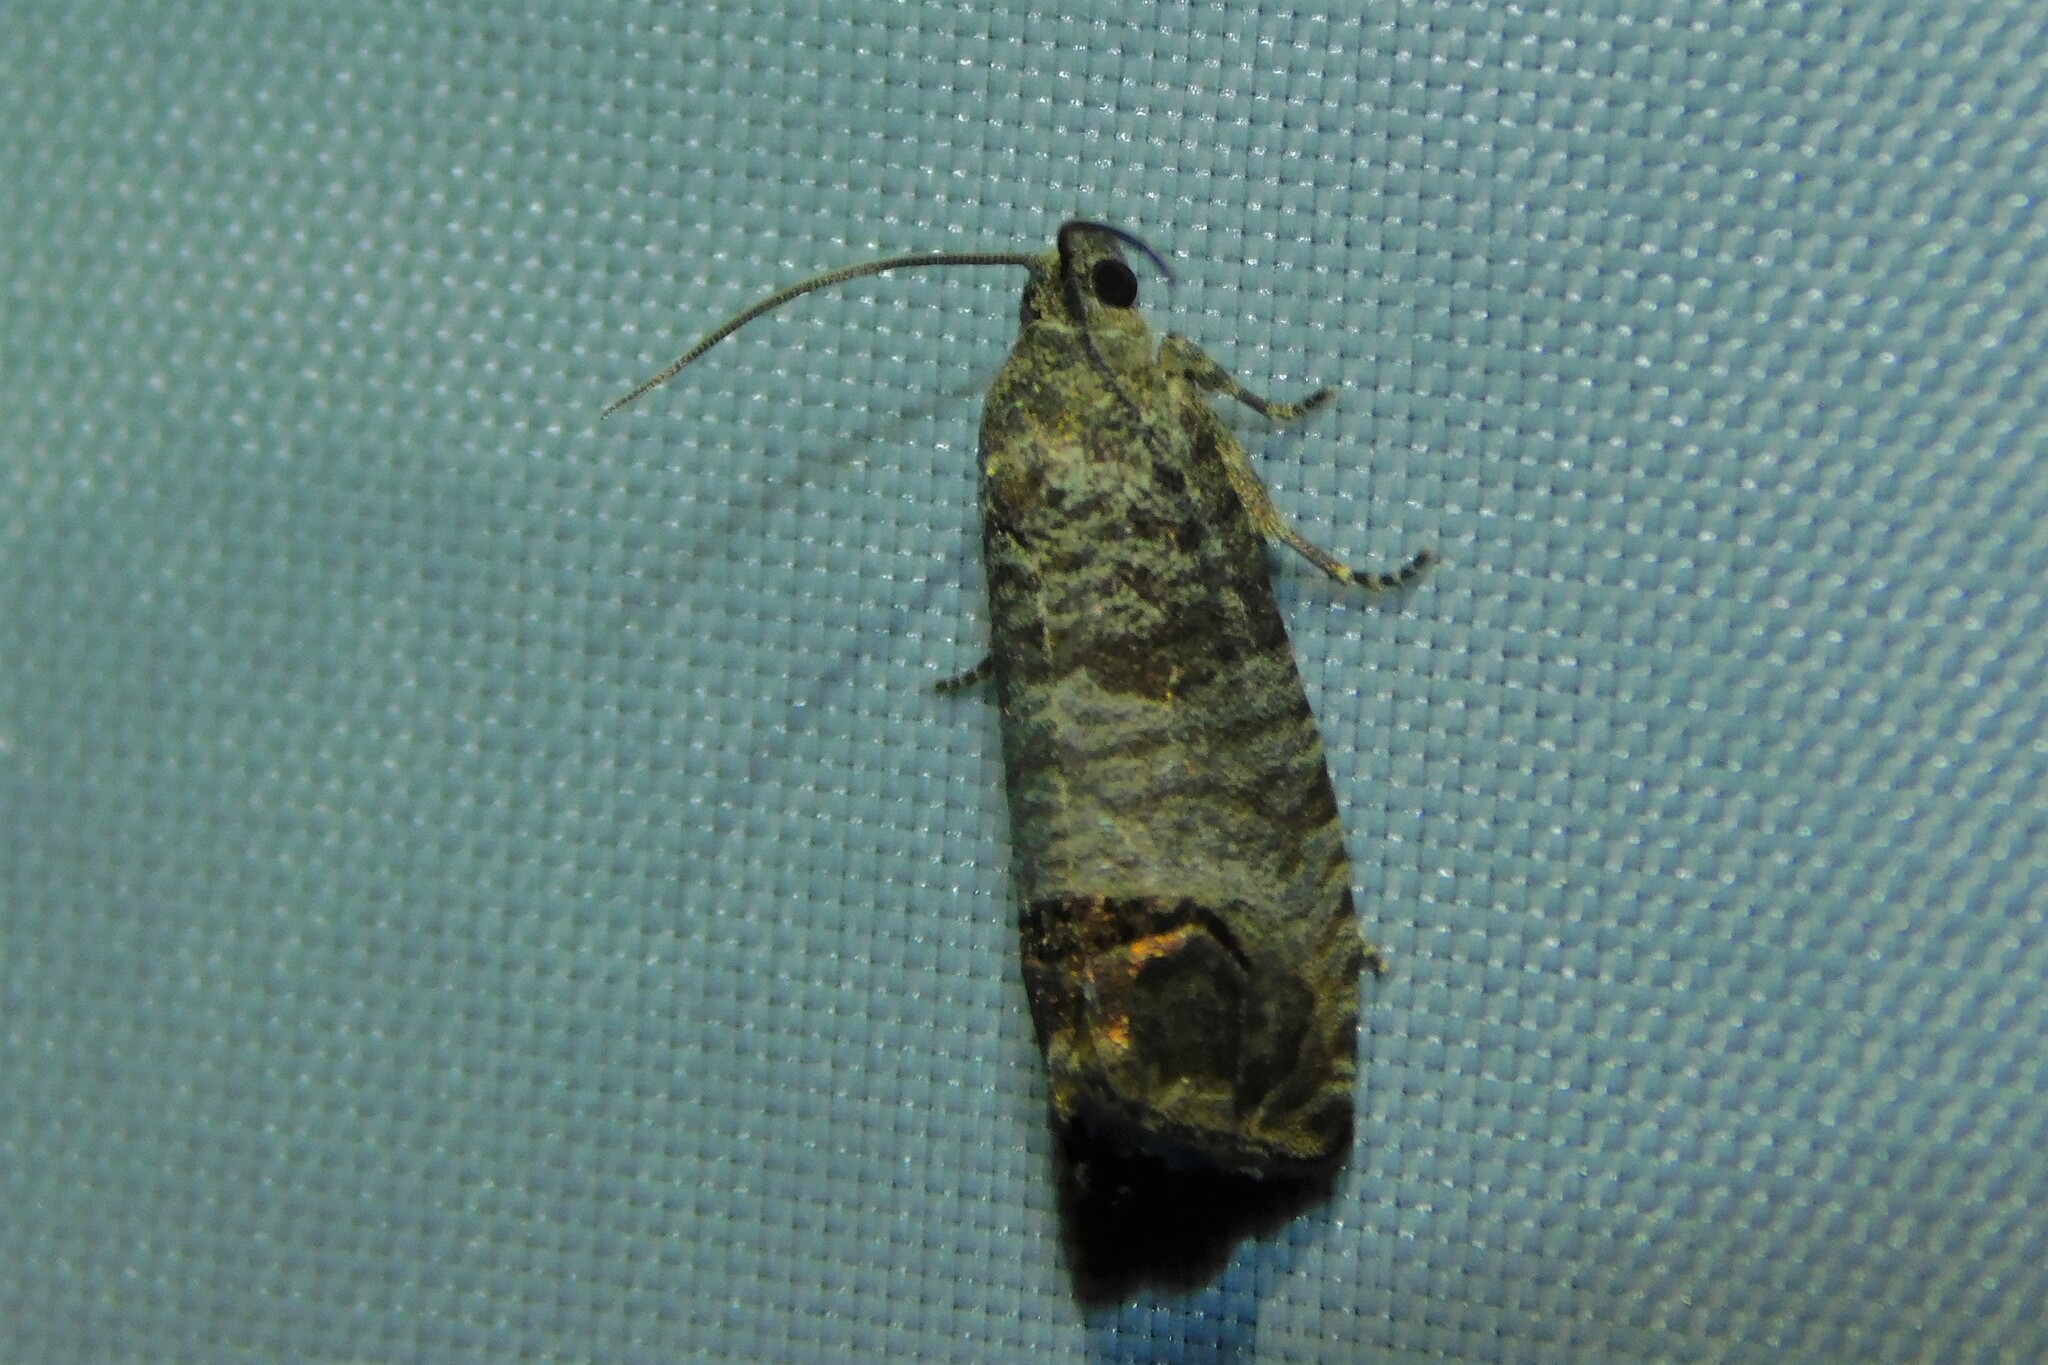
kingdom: Animalia
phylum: Arthropoda
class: Insecta
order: Lepidoptera
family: Tortricidae
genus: Cydia
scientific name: Cydia pomonella
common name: Codling moth
